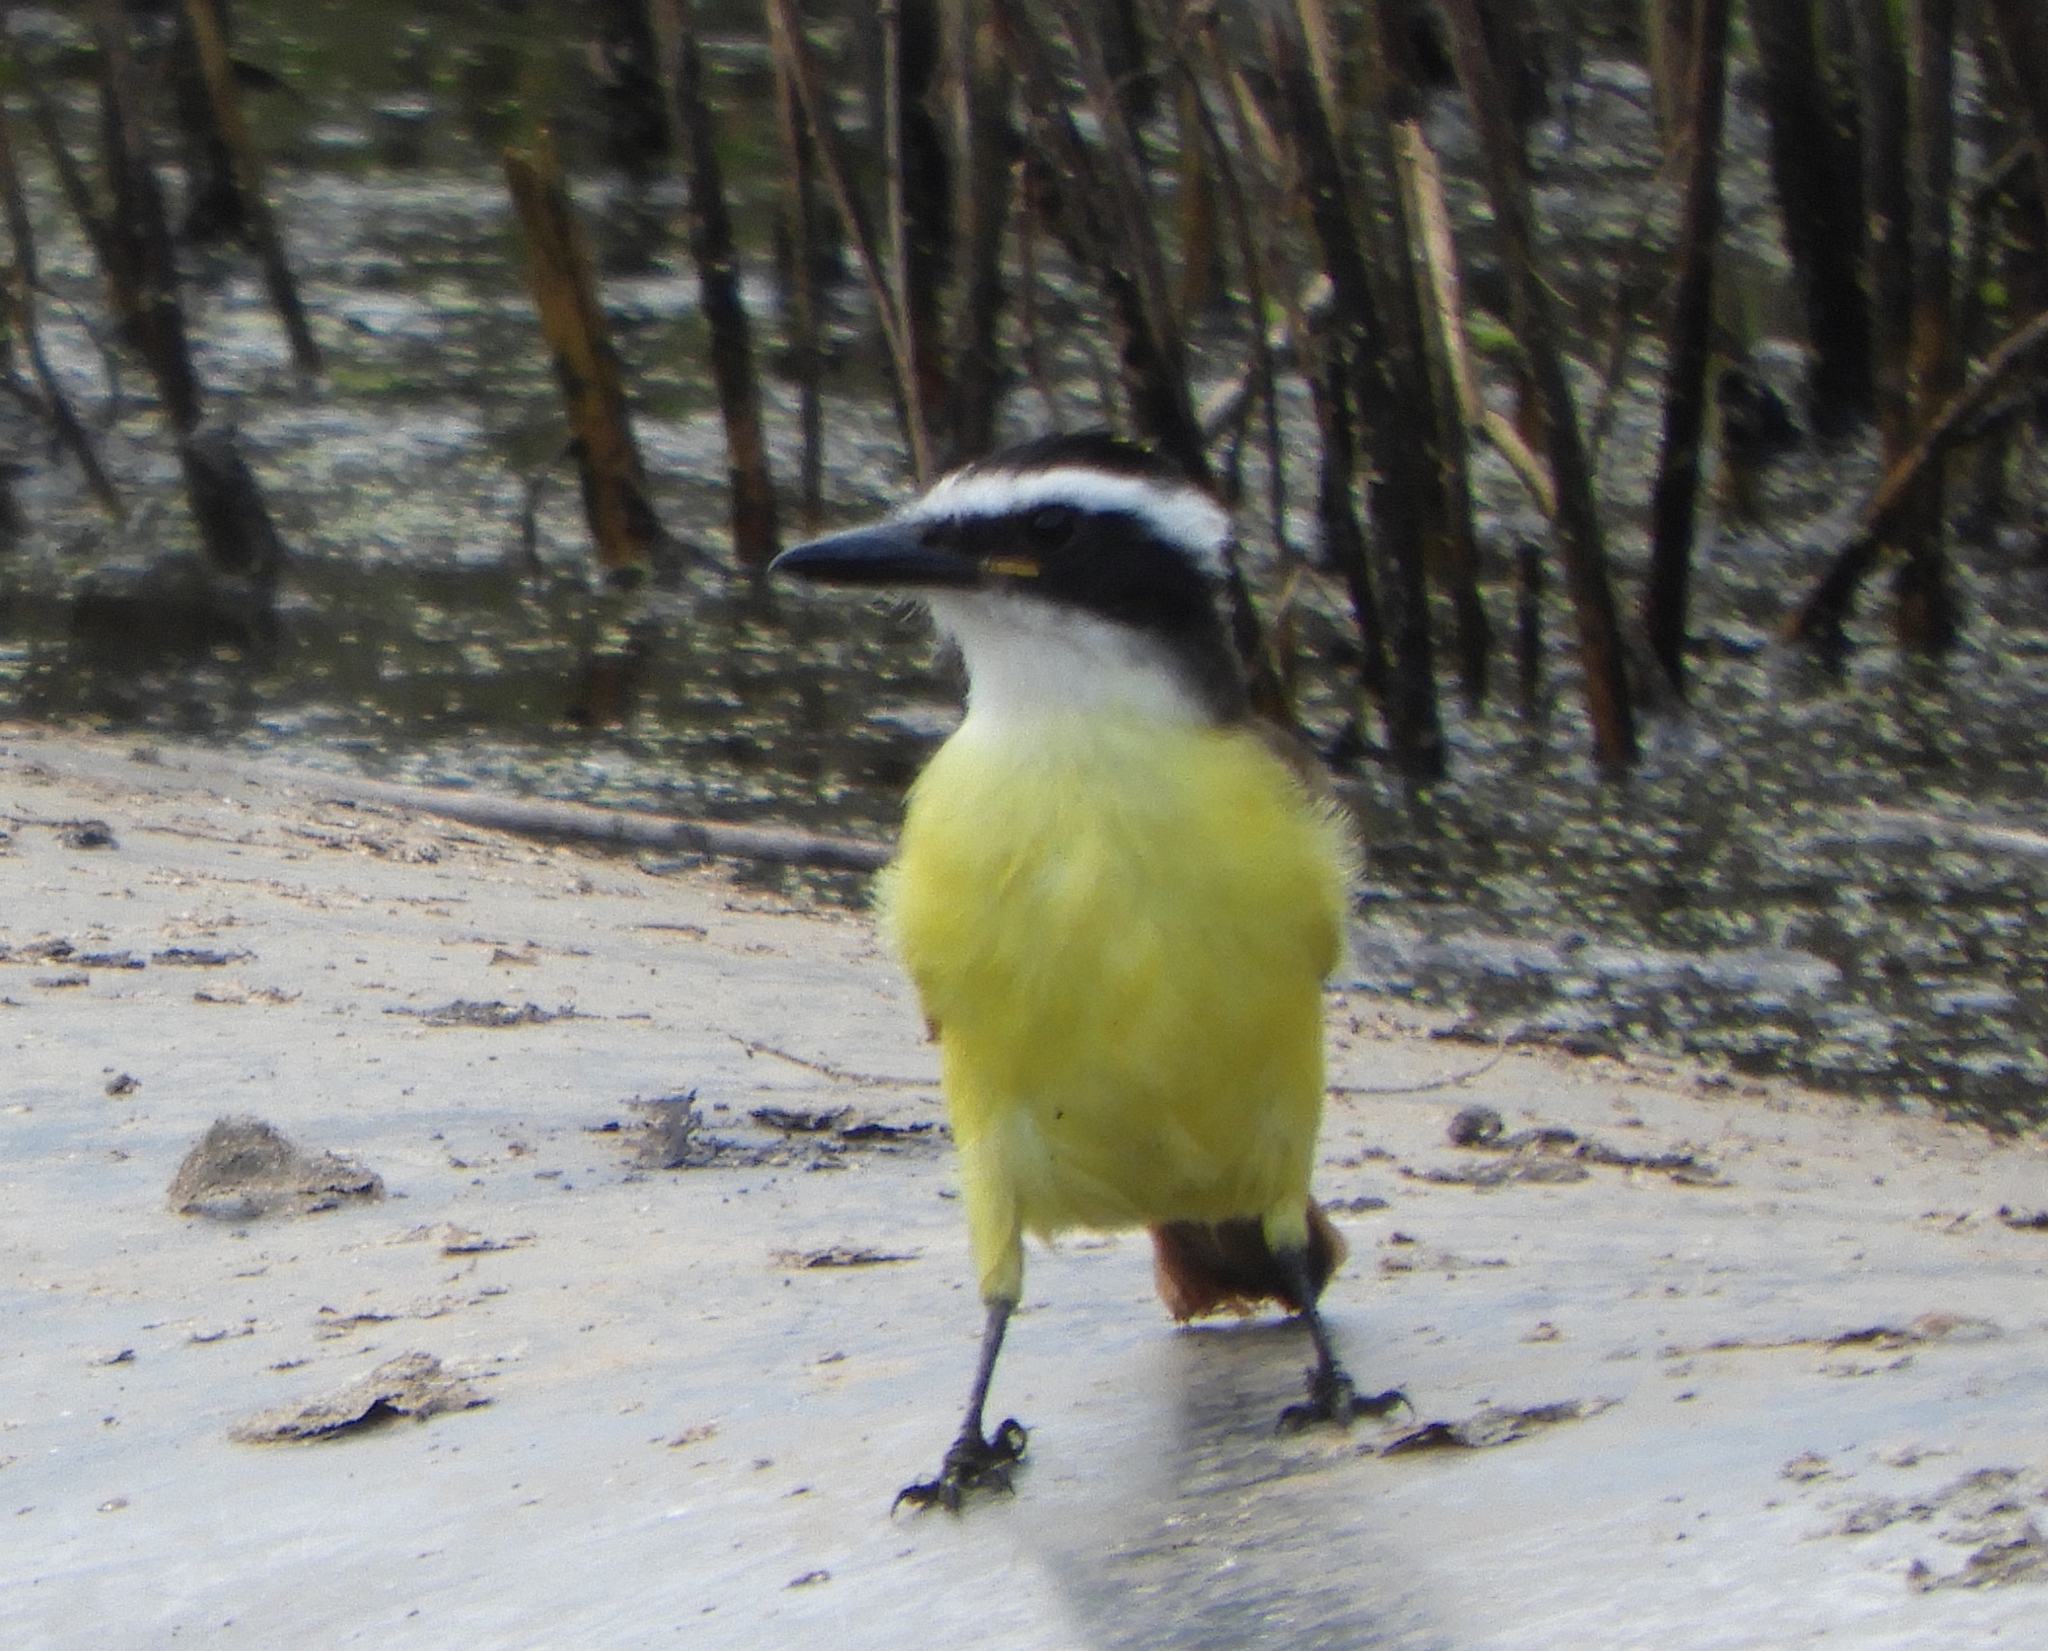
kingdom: Animalia
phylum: Chordata
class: Aves
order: Passeriformes
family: Tyrannidae
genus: Pitangus
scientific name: Pitangus sulphuratus
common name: Great kiskadee
